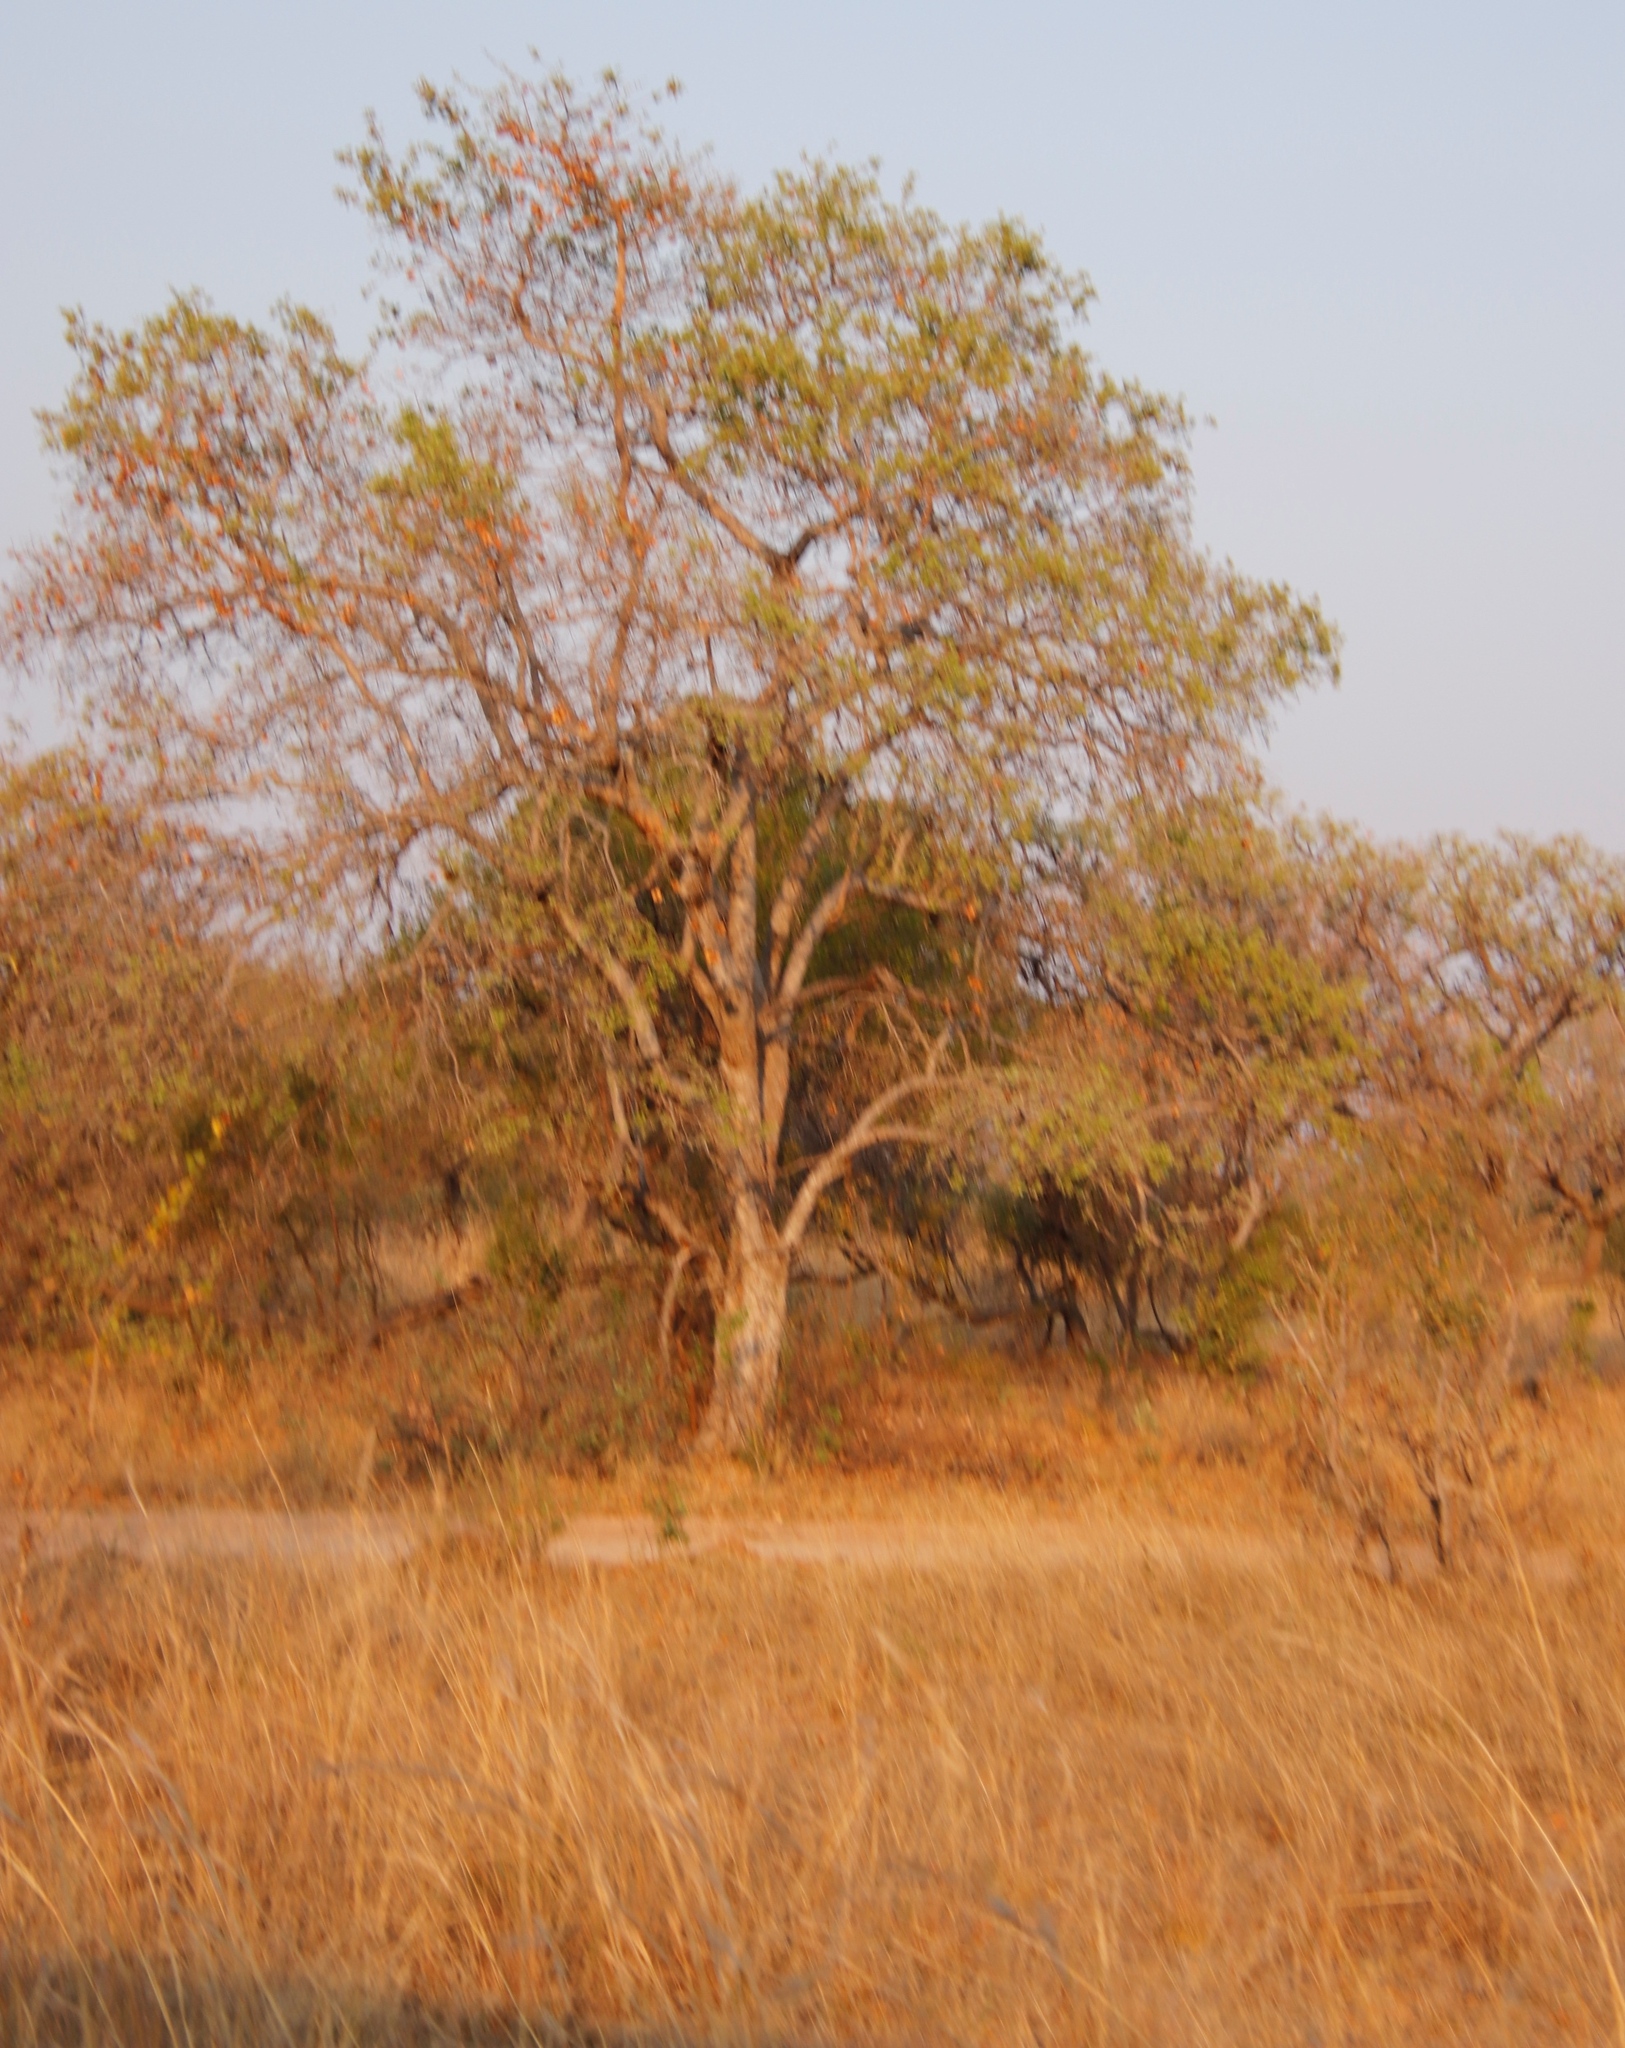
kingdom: Plantae
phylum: Tracheophyta
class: Magnoliopsida
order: Myrtales
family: Combretaceae
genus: Combretum
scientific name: Combretum zeyheri
